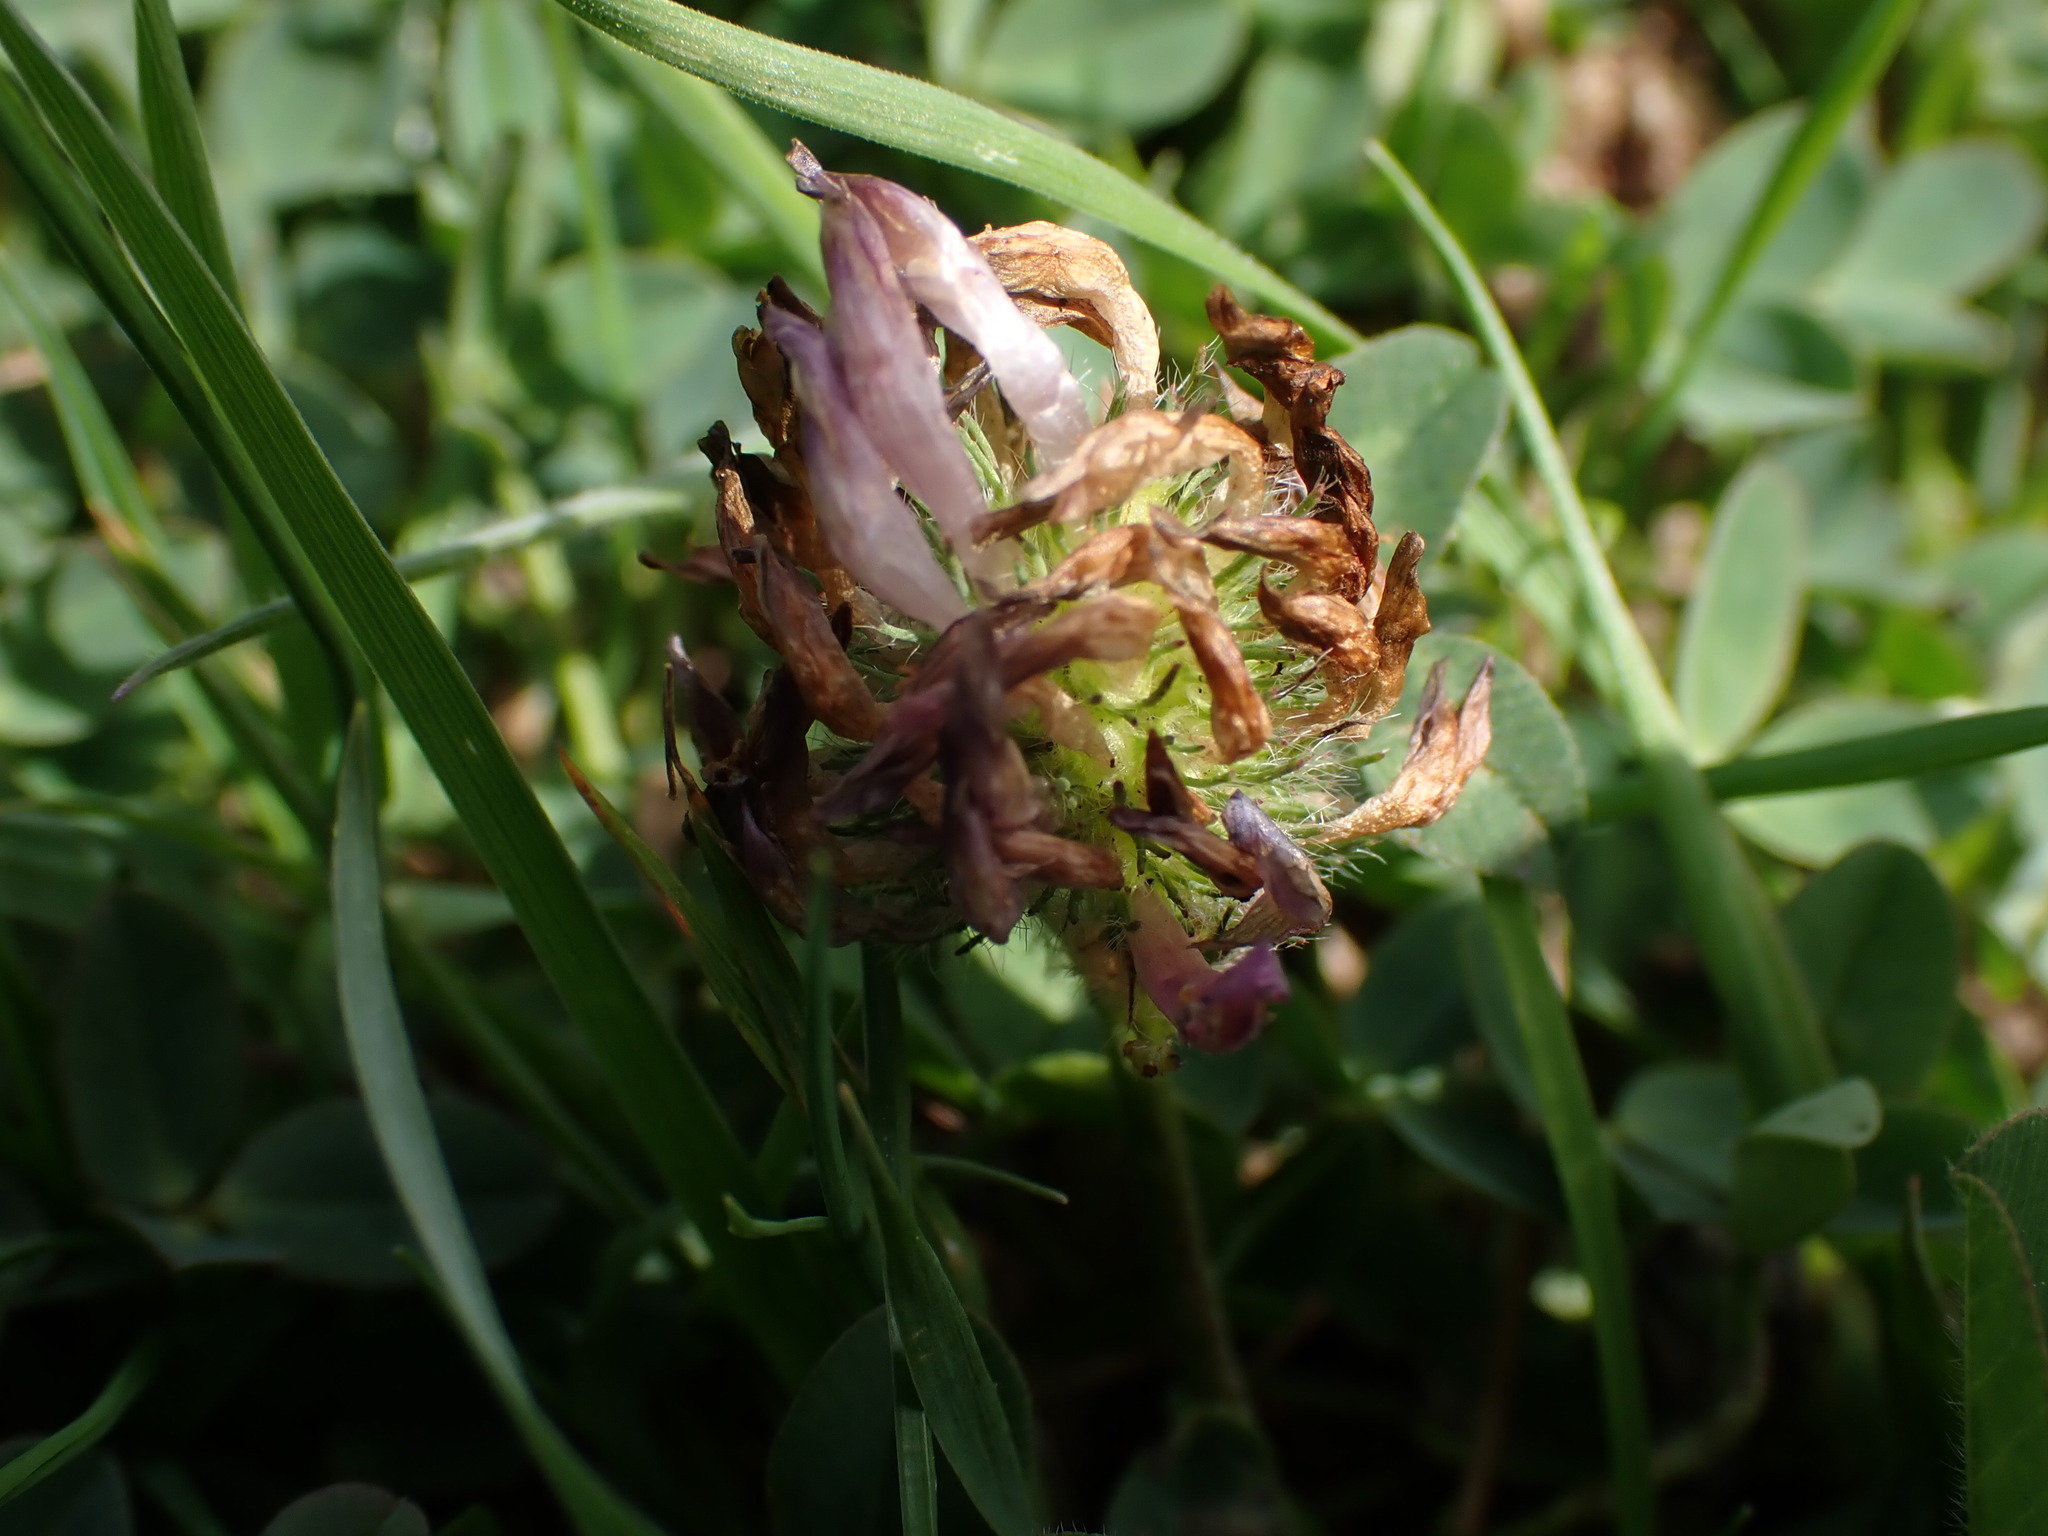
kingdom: Plantae
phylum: Tracheophyta
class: Magnoliopsida
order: Fabales
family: Fabaceae
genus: Trifolium
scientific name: Trifolium pratense
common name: Red clover
